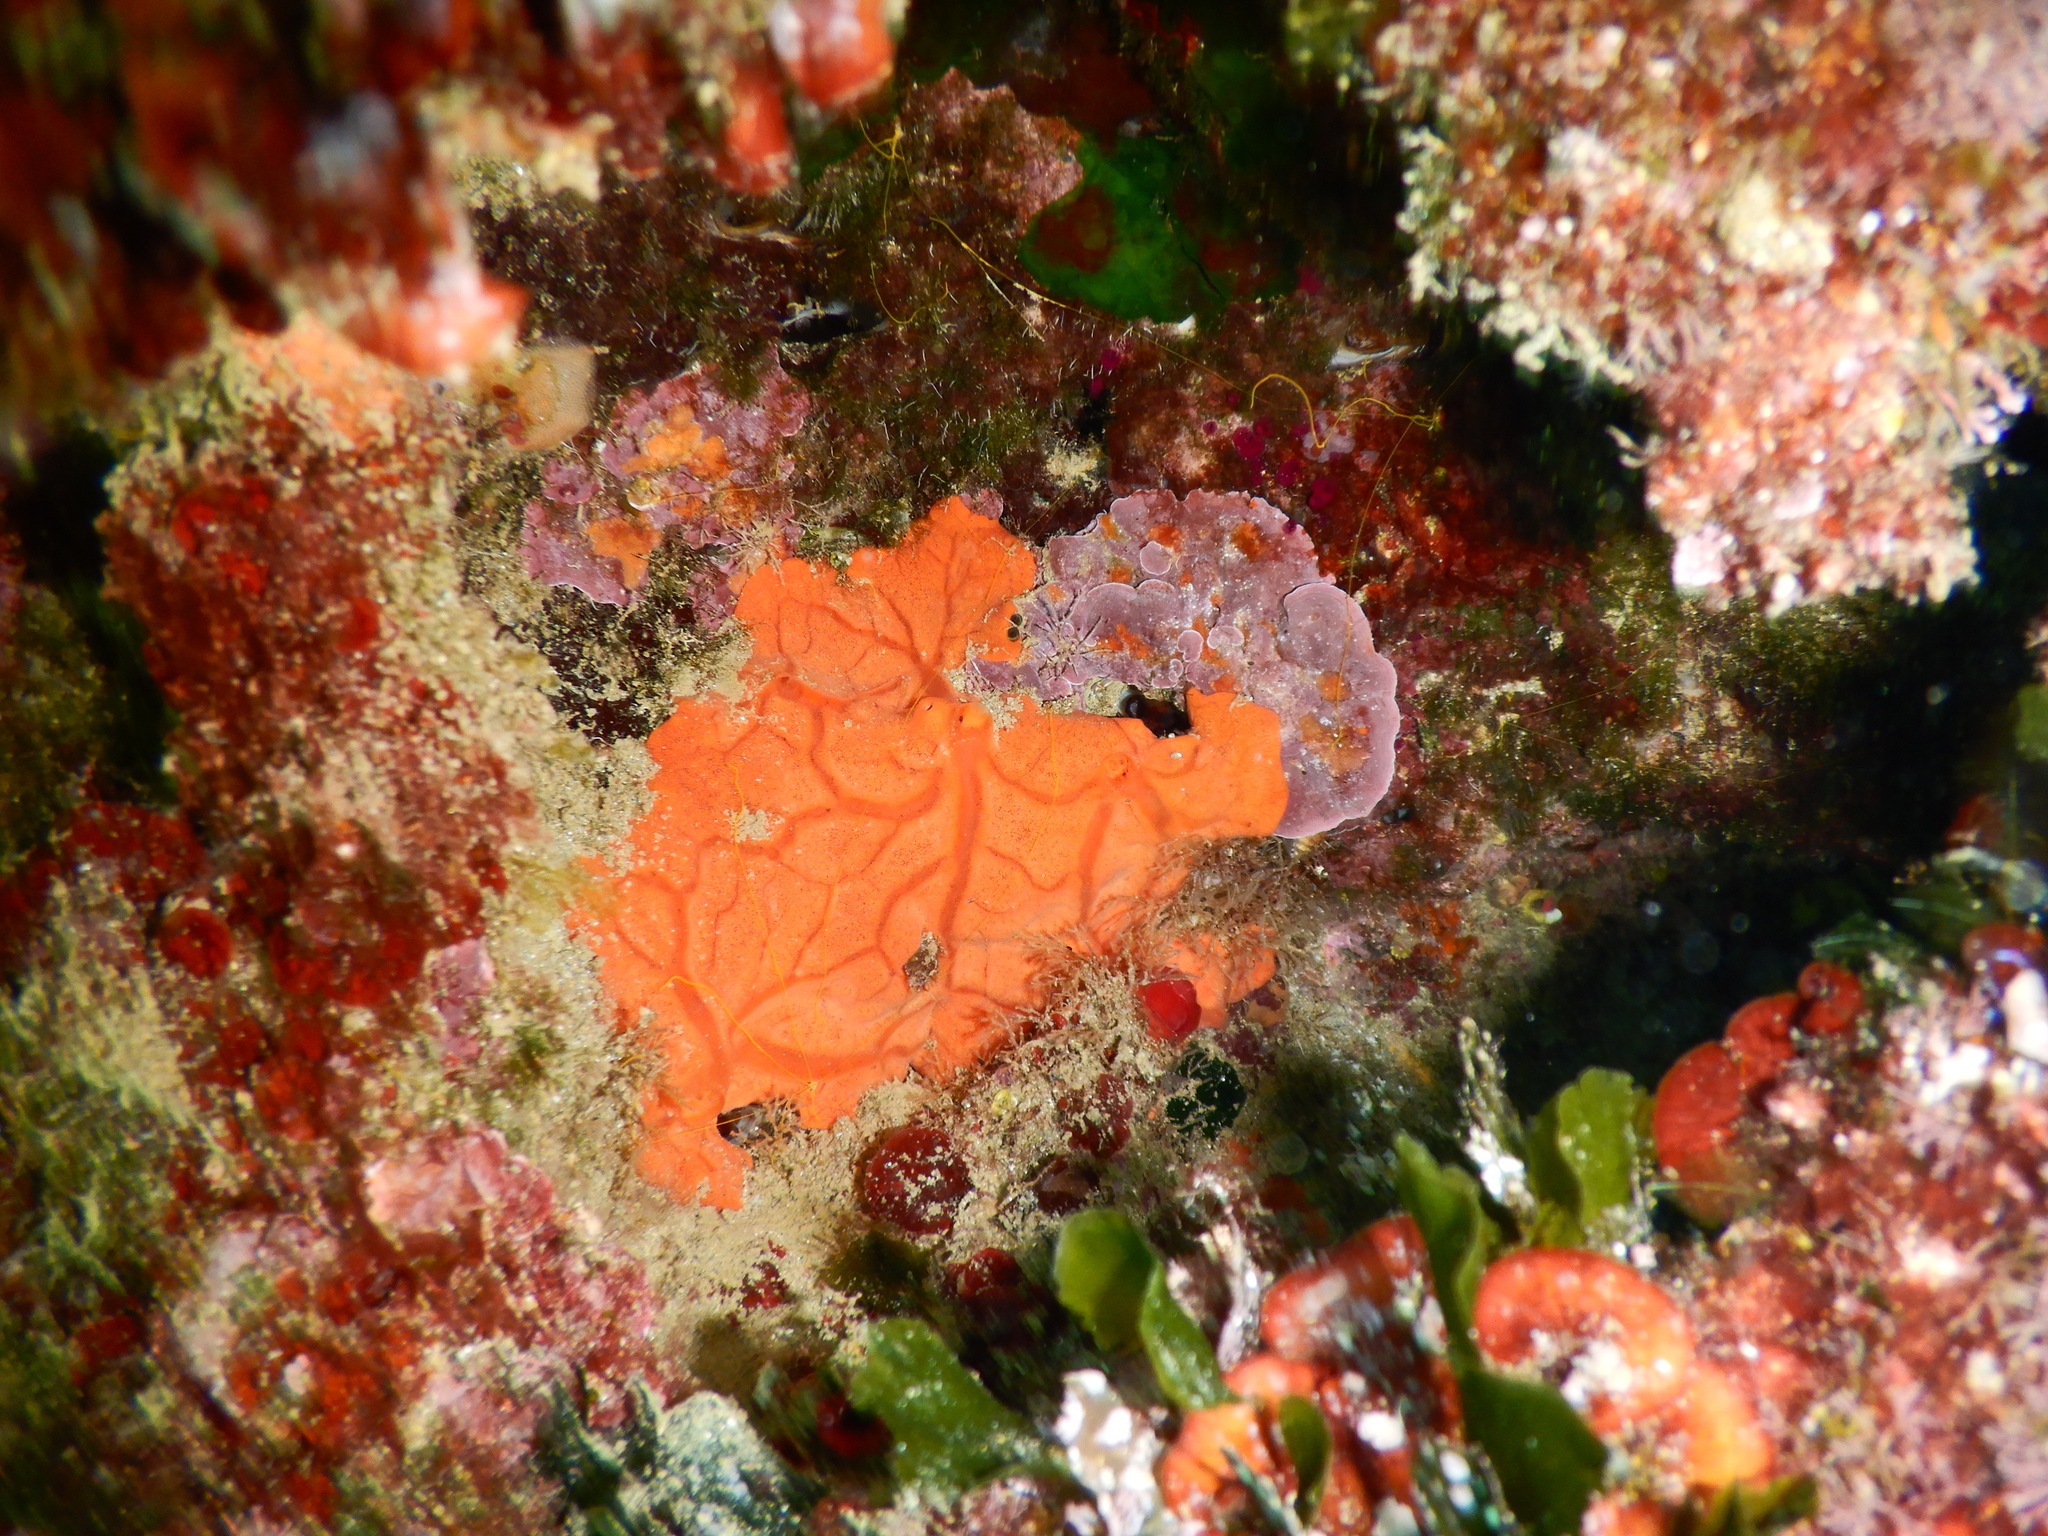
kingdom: Animalia
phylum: Porifera
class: Demospongiae
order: Clionaida
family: Spirastrellidae
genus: Spirastrella
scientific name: Spirastrella cunctatrix
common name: Encrusting orange sponge
